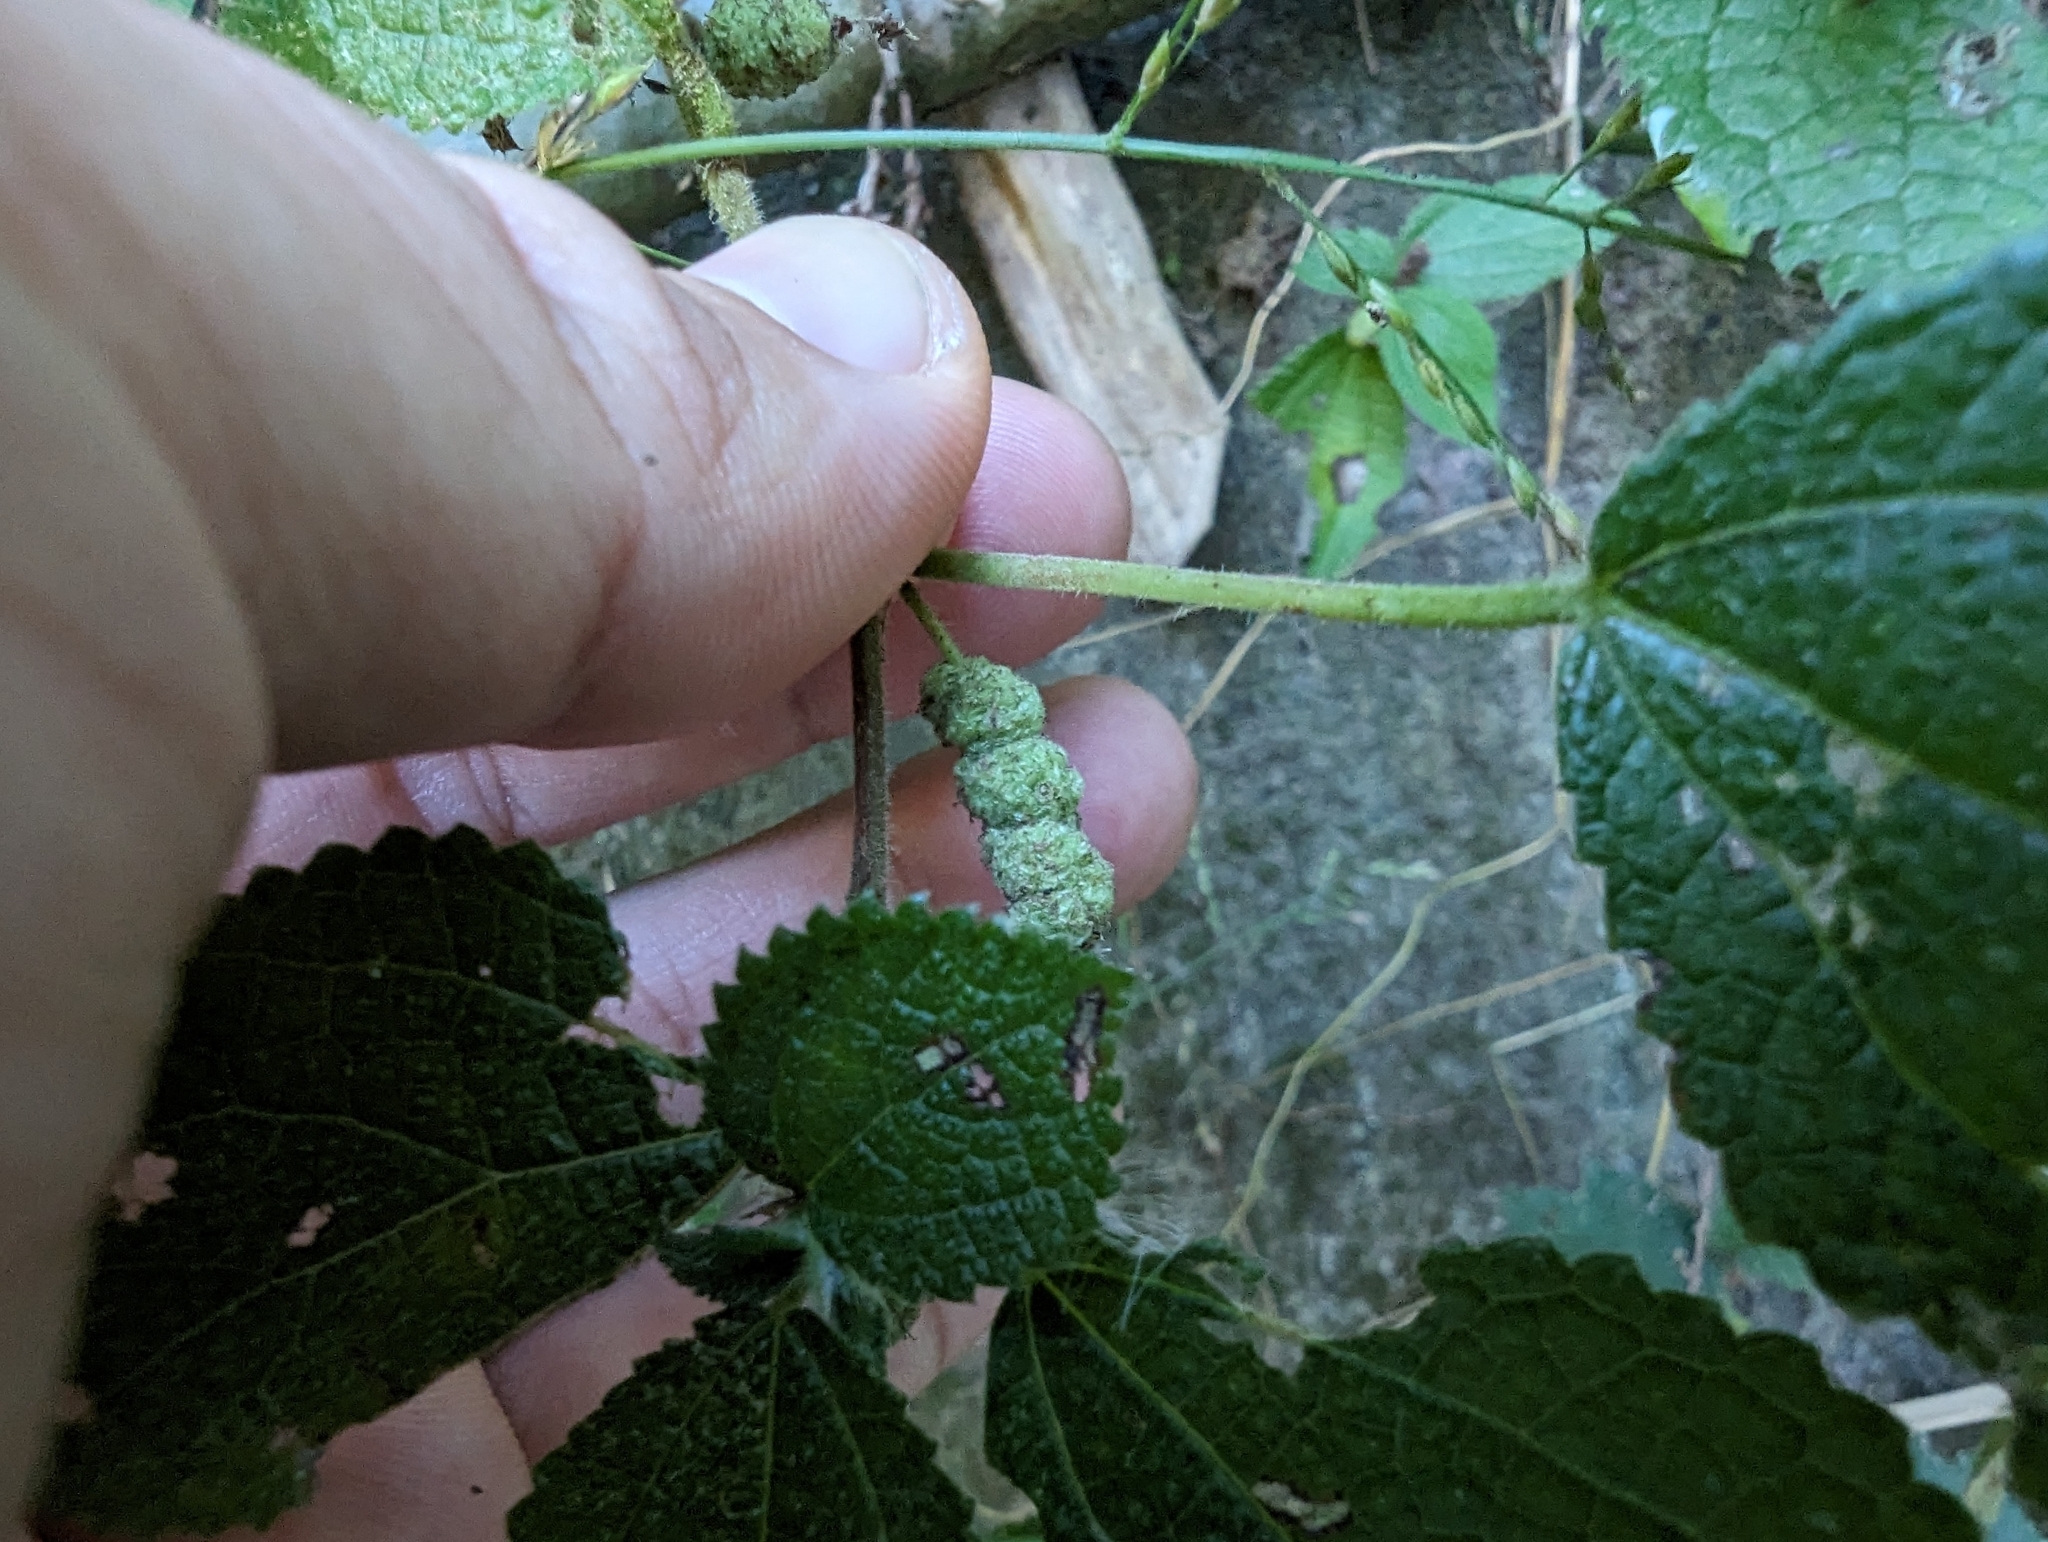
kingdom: Plantae
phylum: Tracheophyta
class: Magnoliopsida
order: Rosales
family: Urticaceae
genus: Boehmeria
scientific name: Boehmeria pilosiuscula
